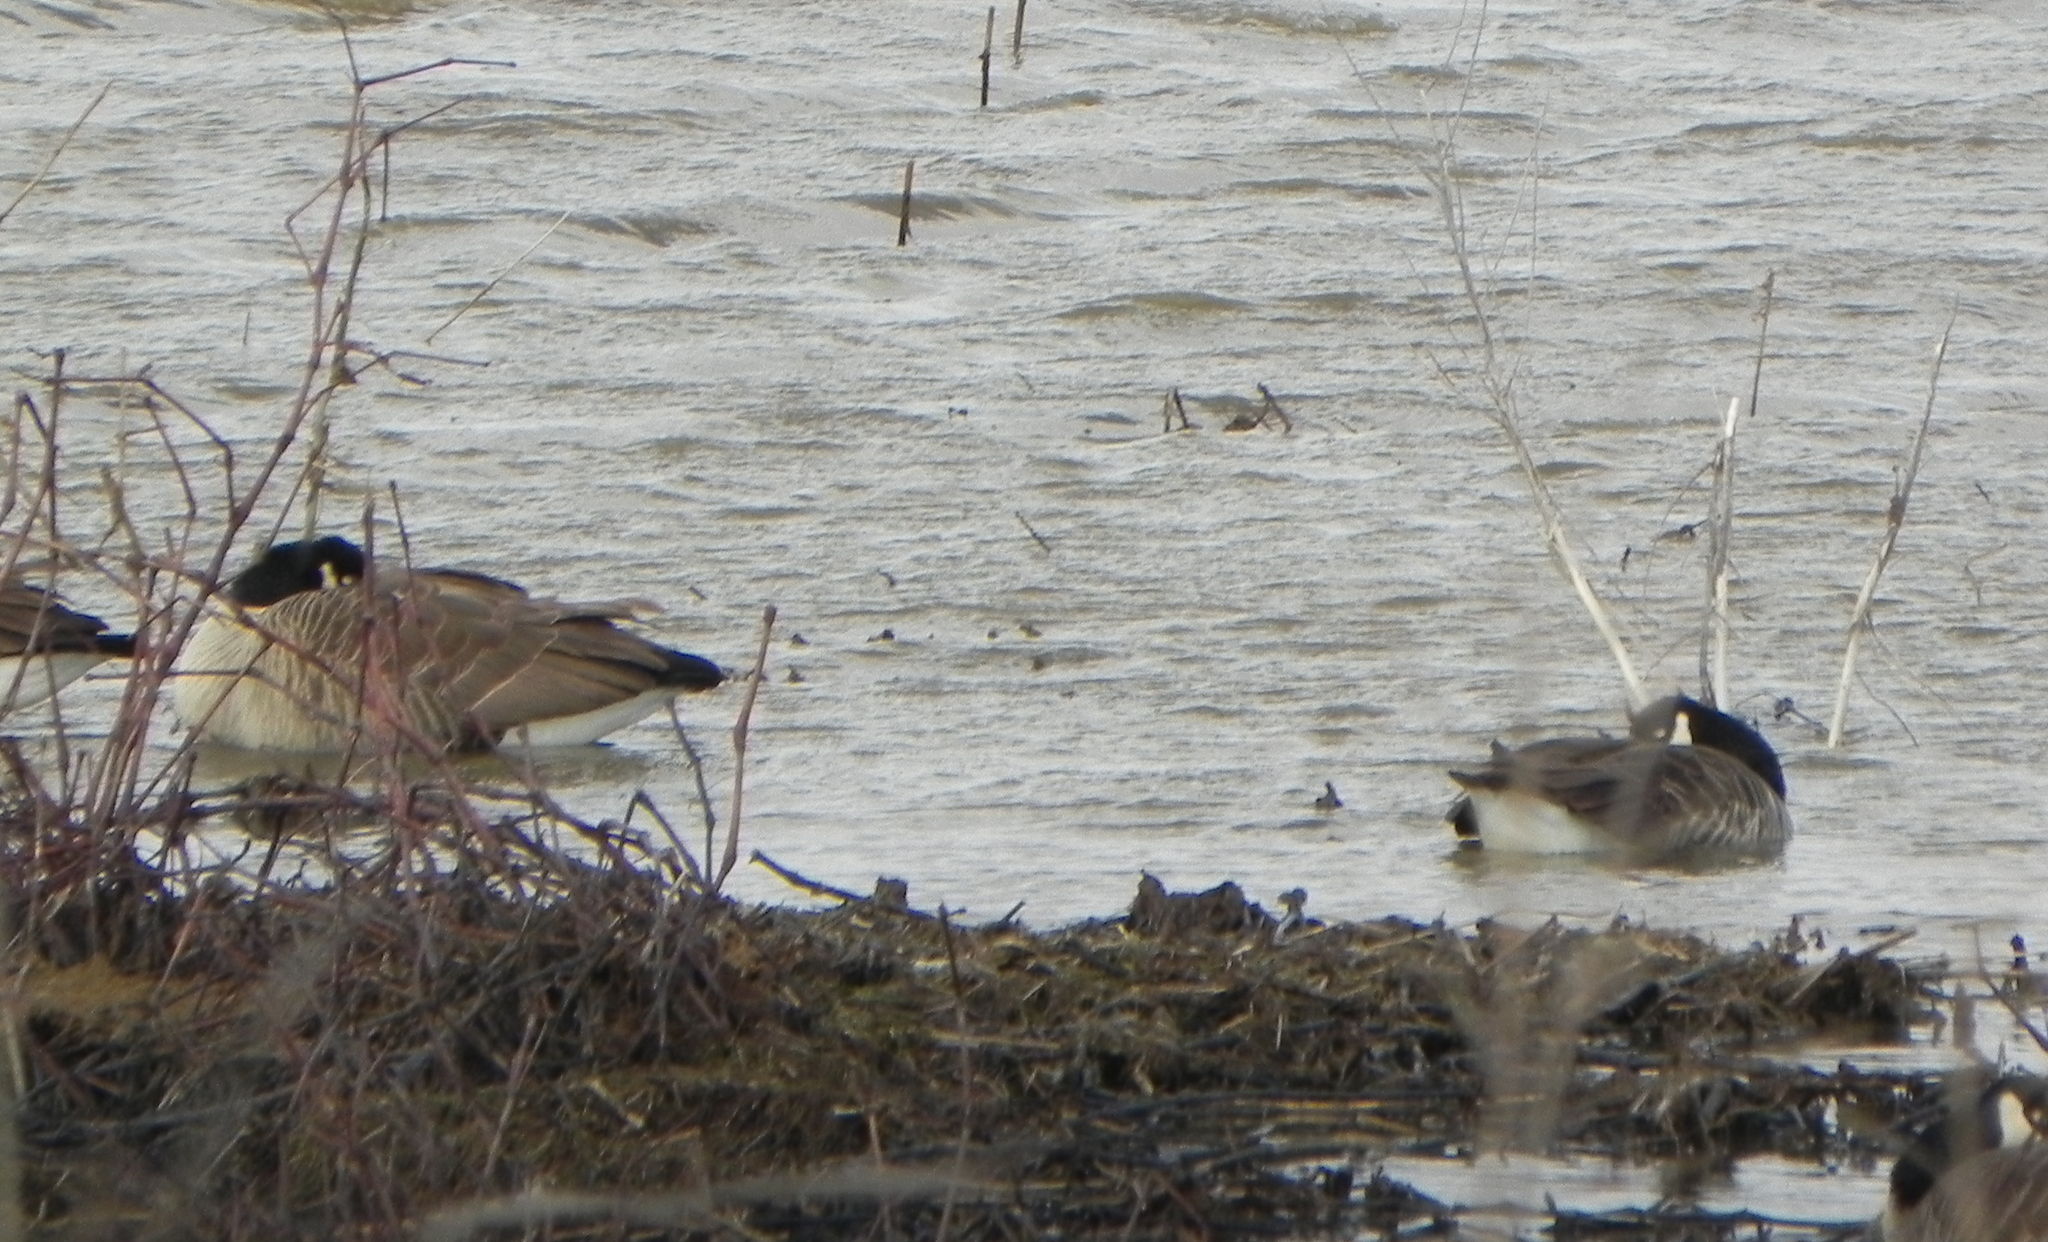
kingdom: Animalia
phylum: Chordata
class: Aves
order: Anseriformes
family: Anatidae
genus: Branta
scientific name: Branta canadensis
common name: Canada goose
